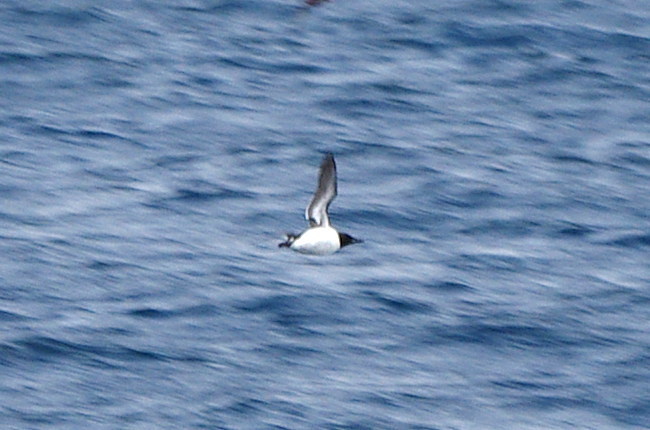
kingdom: Animalia
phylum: Chordata
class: Aves
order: Charadriiformes
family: Alcidae
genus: Uria
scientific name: Uria lomvia
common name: Thick-billed murre
